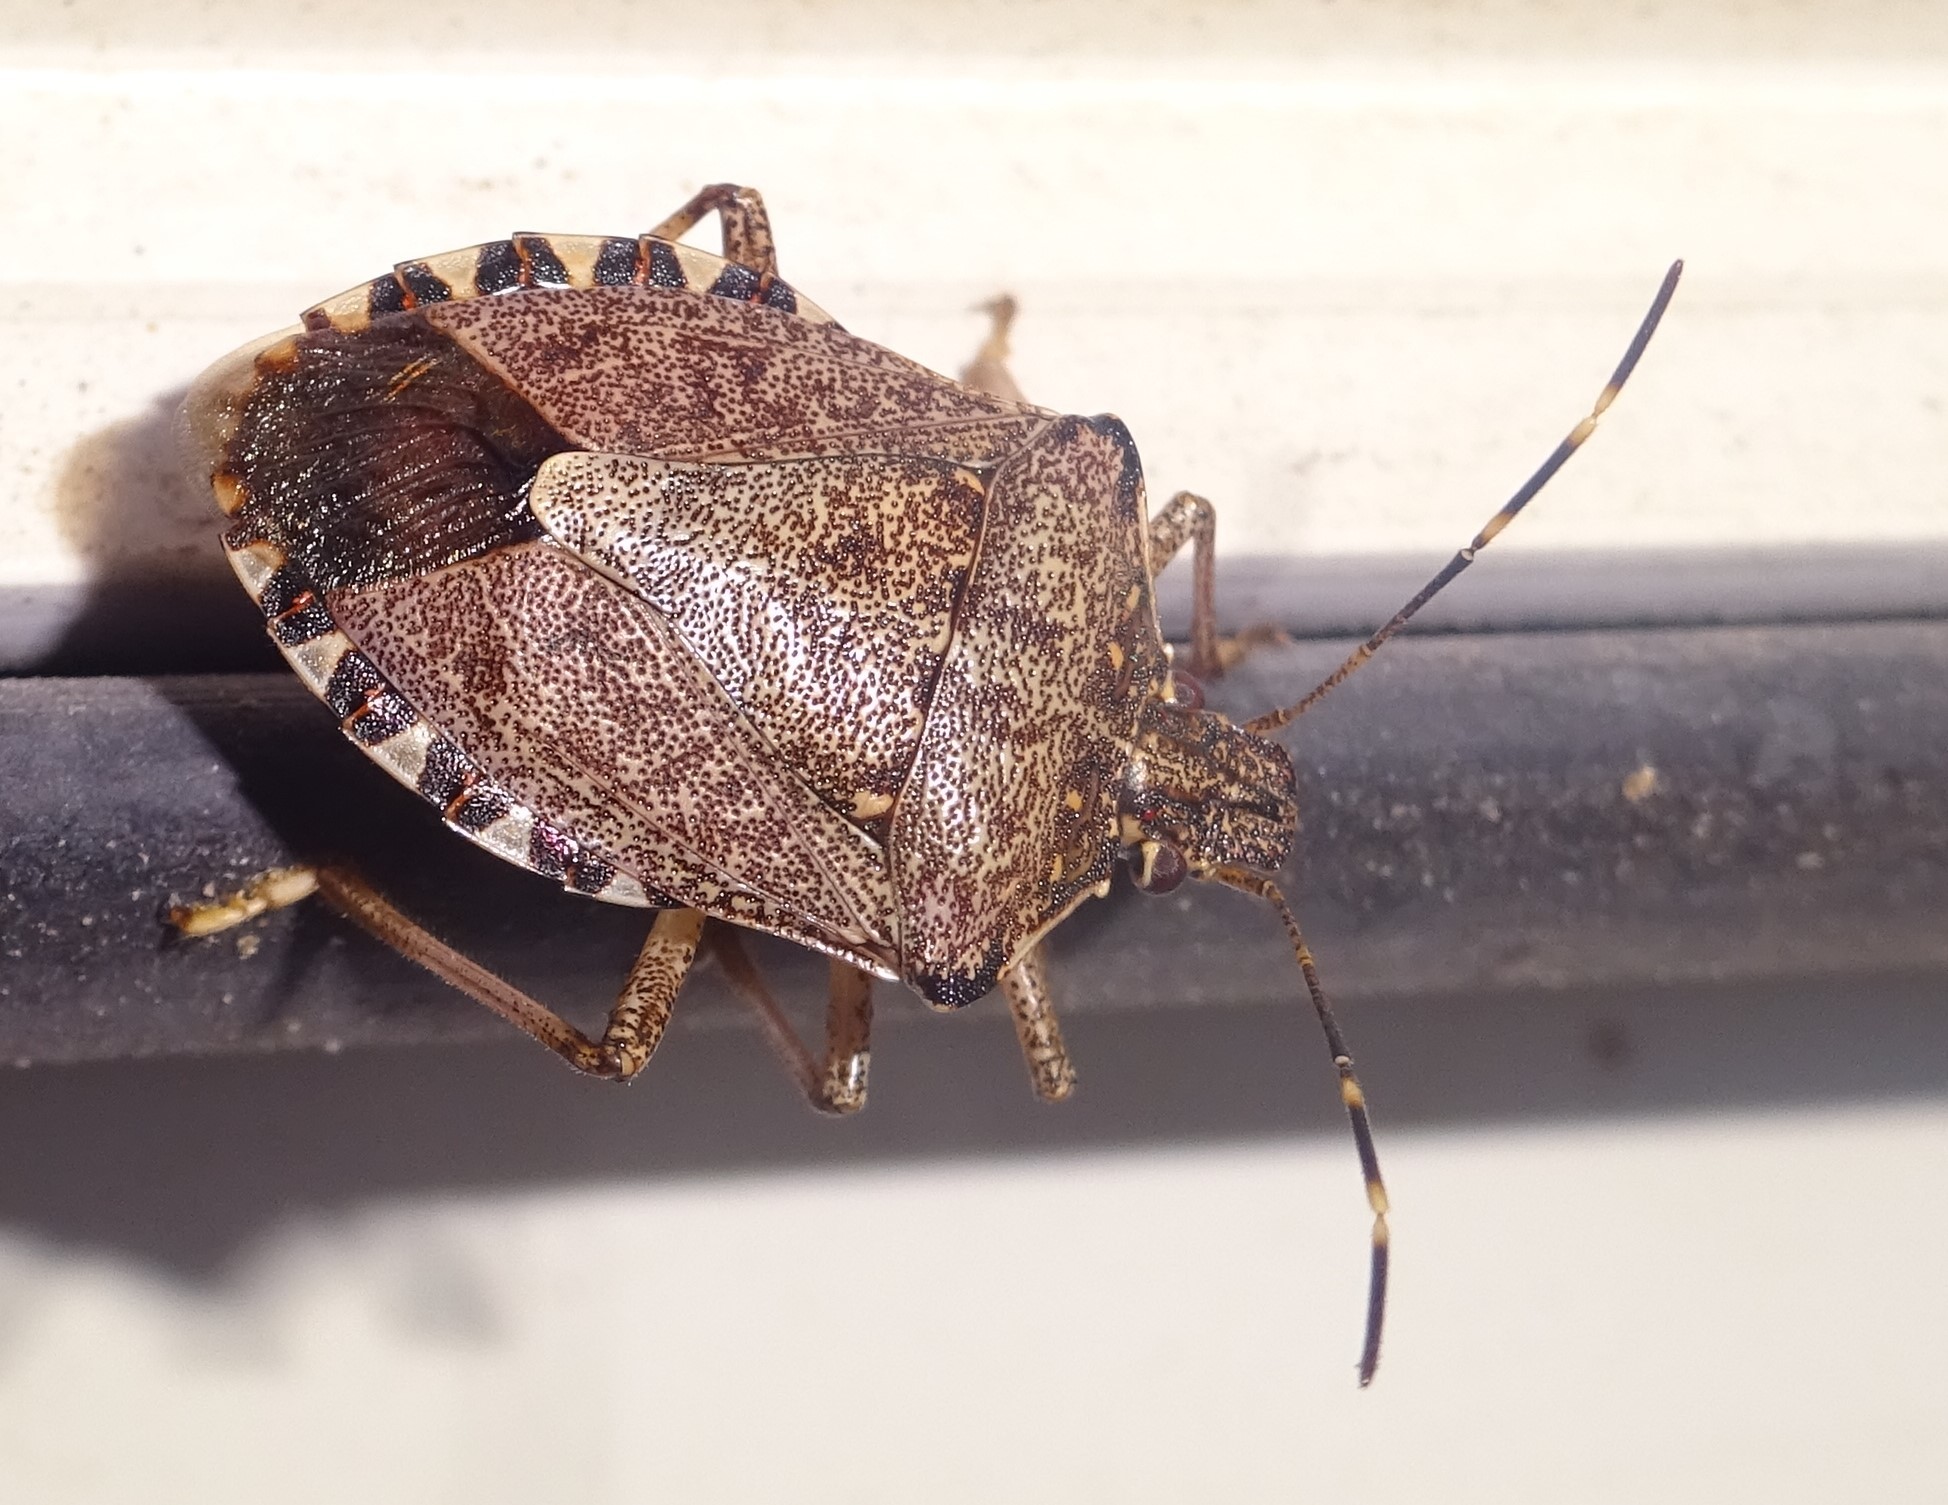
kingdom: Animalia
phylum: Arthropoda
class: Insecta
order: Hemiptera
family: Pentatomidae
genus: Halyomorpha
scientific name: Halyomorpha halys
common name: Brown marmorated stink bug
